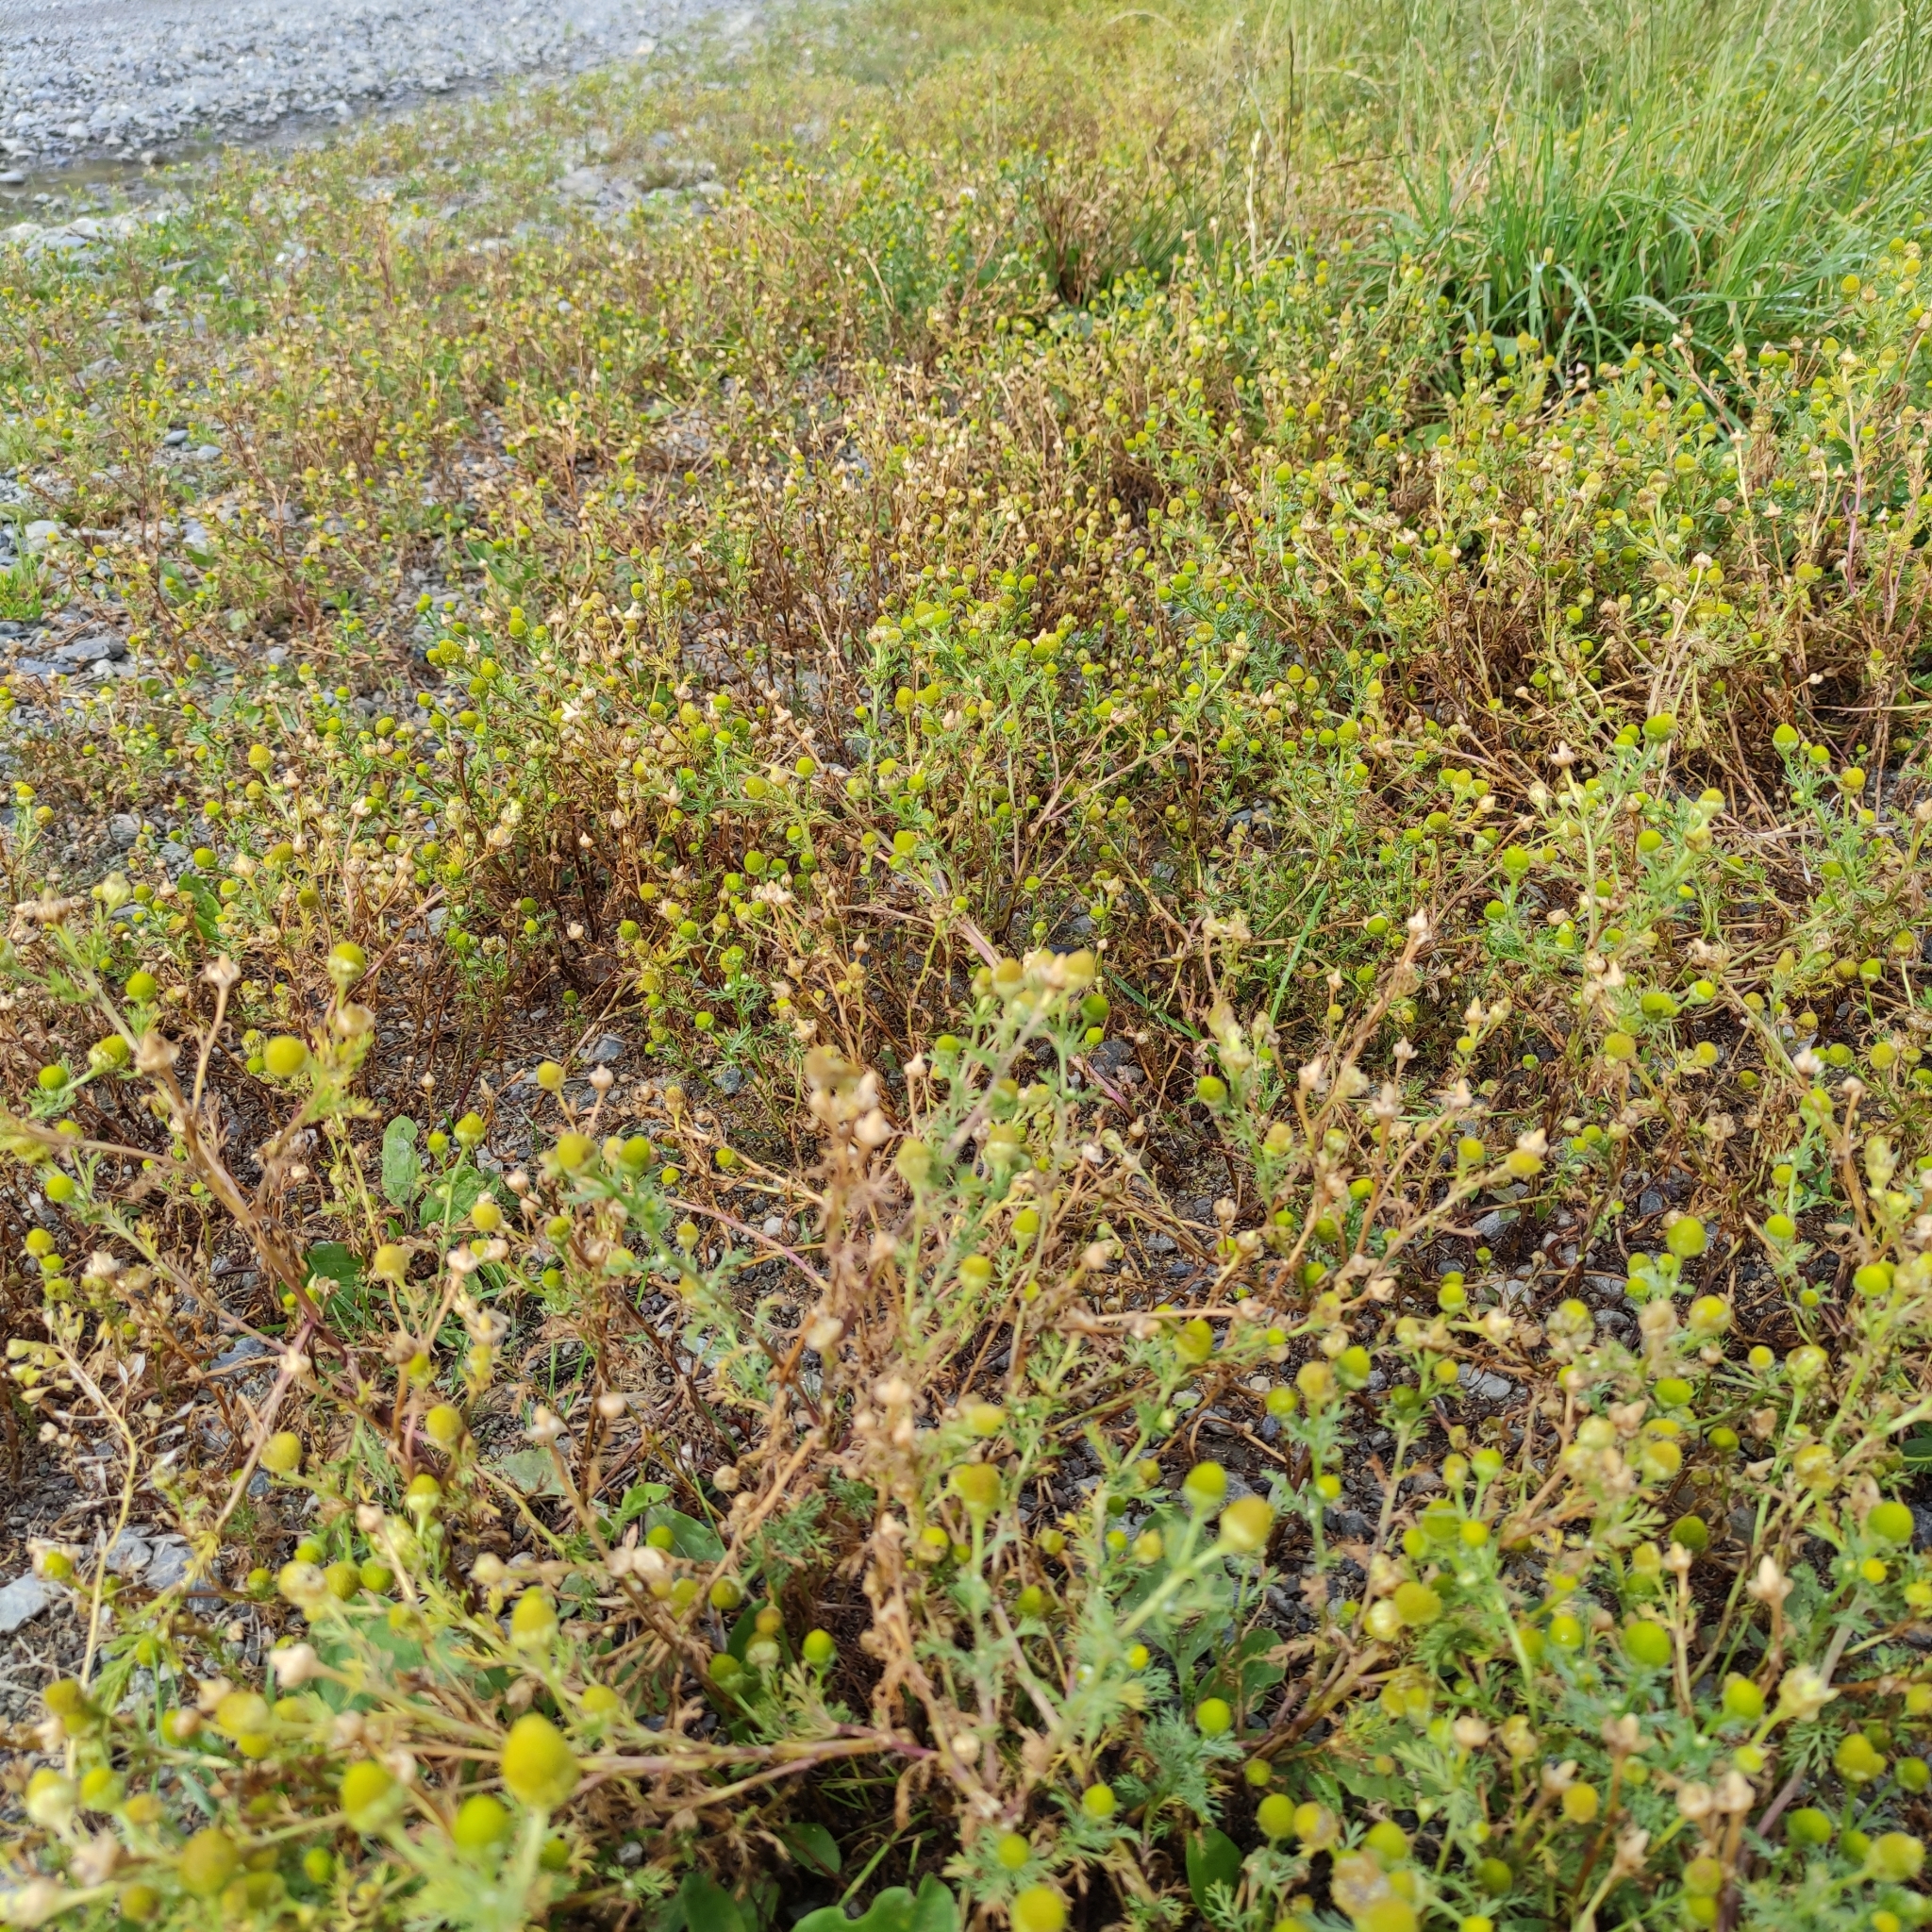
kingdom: Plantae
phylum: Tracheophyta
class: Magnoliopsida
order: Asterales
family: Asteraceae
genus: Matricaria
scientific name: Matricaria discoidea
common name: Disc mayweed
